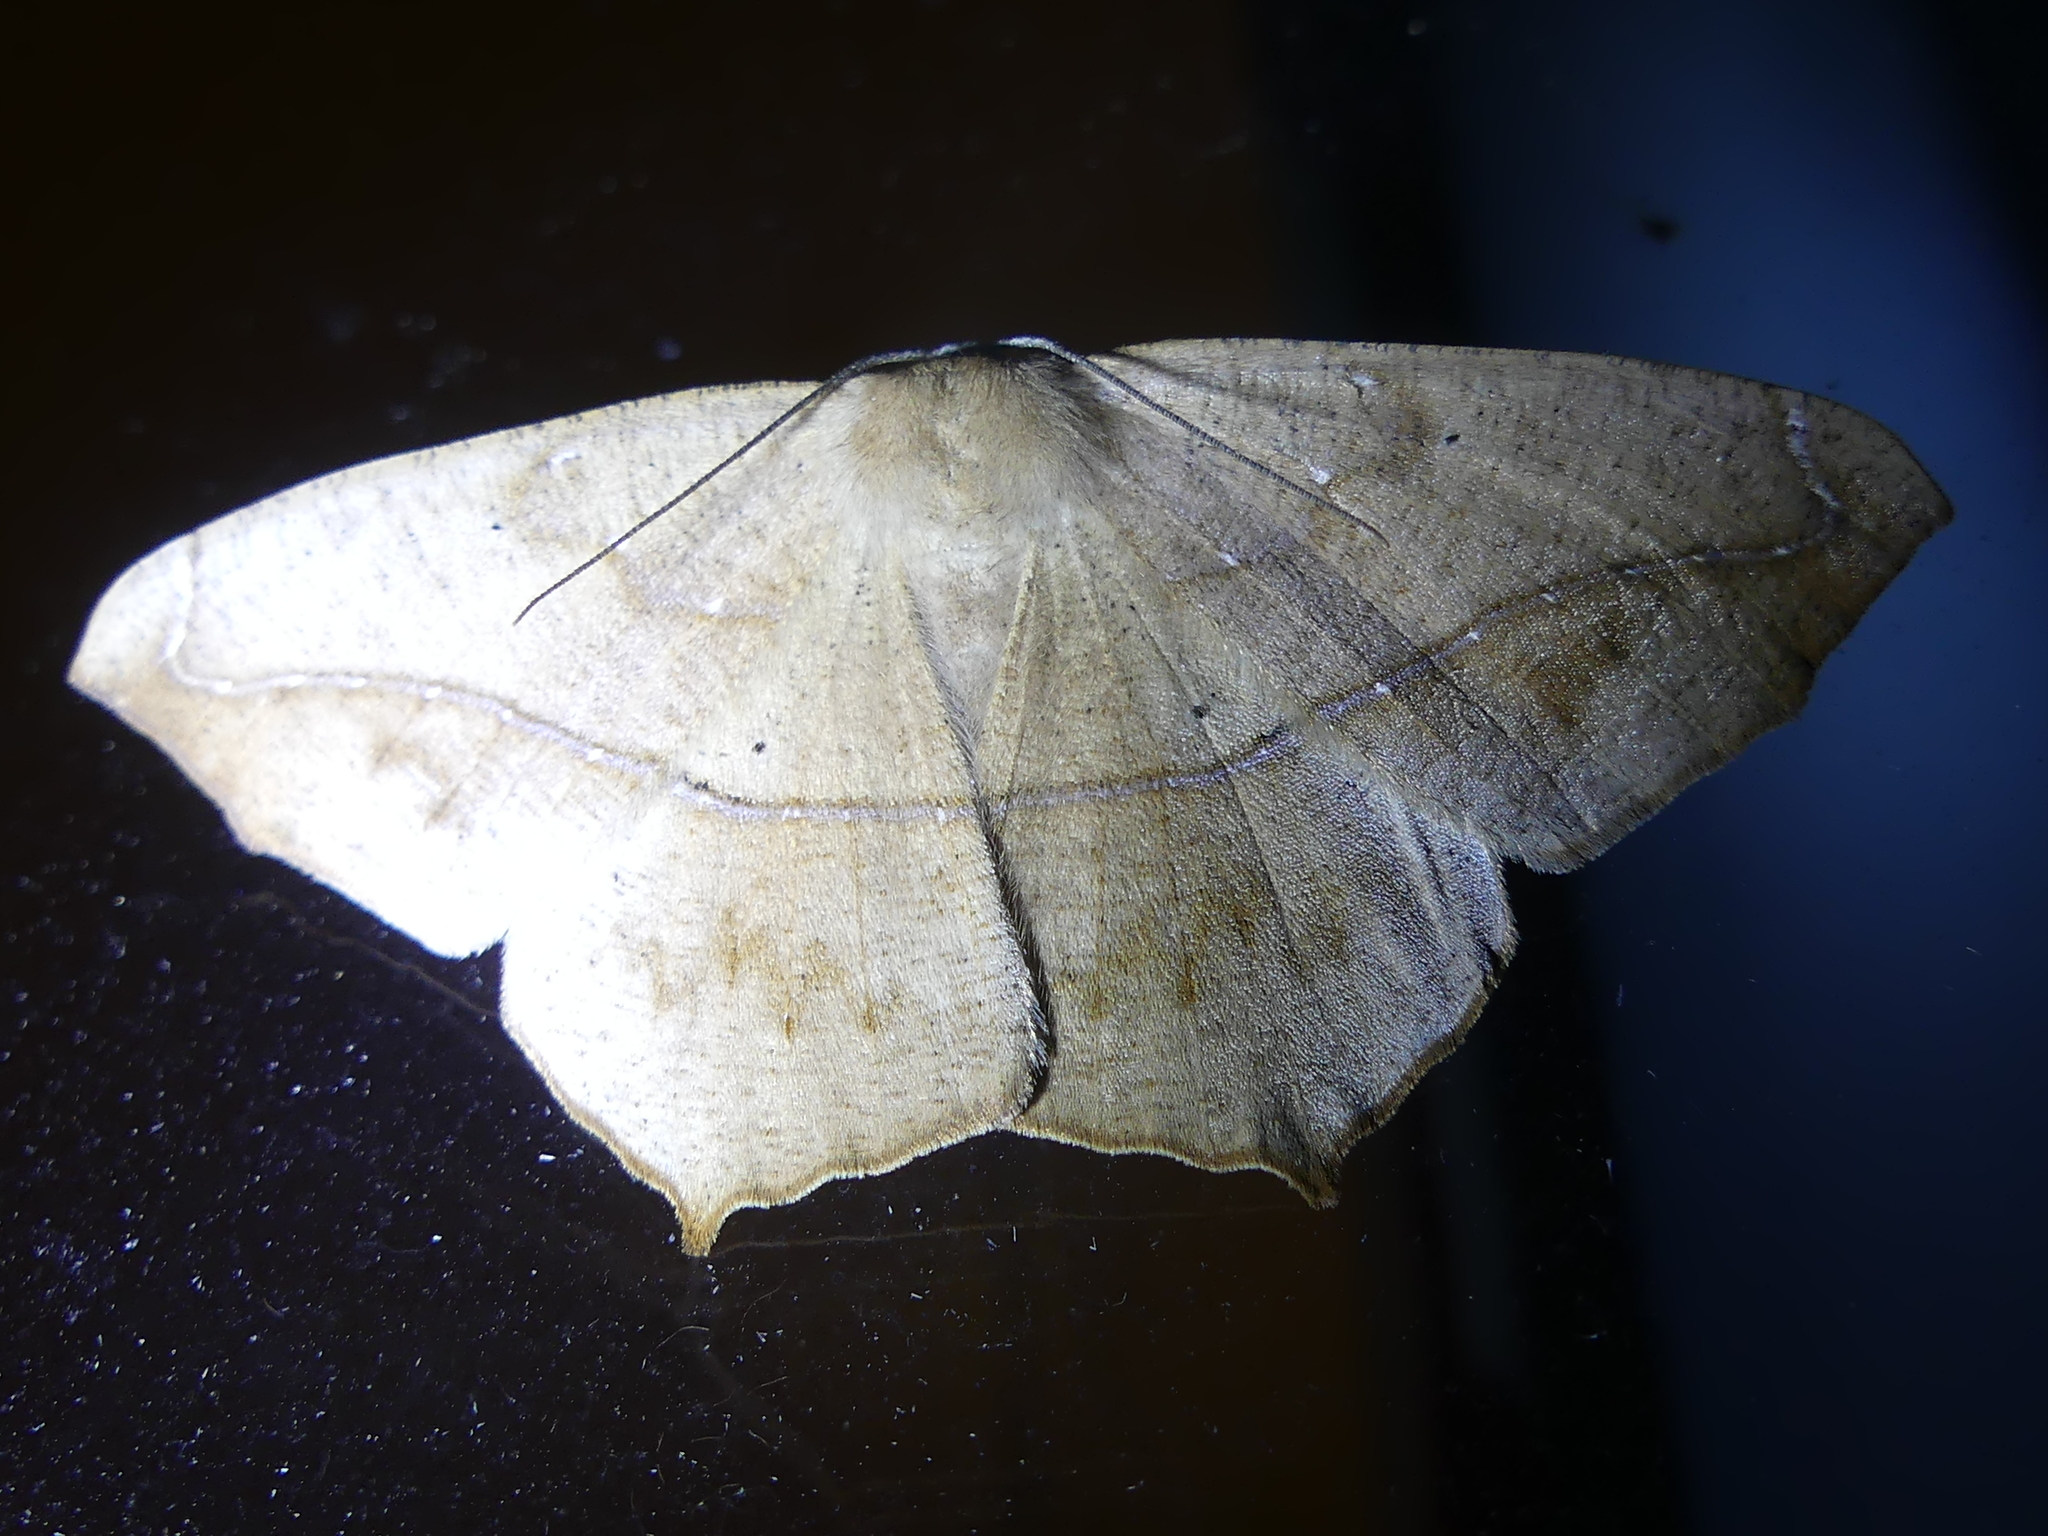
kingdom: Animalia
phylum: Arthropoda
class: Insecta
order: Lepidoptera
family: Geometridae
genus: Prochoerodes
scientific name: Prochoerodes lineola
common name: Large maple spanworm
